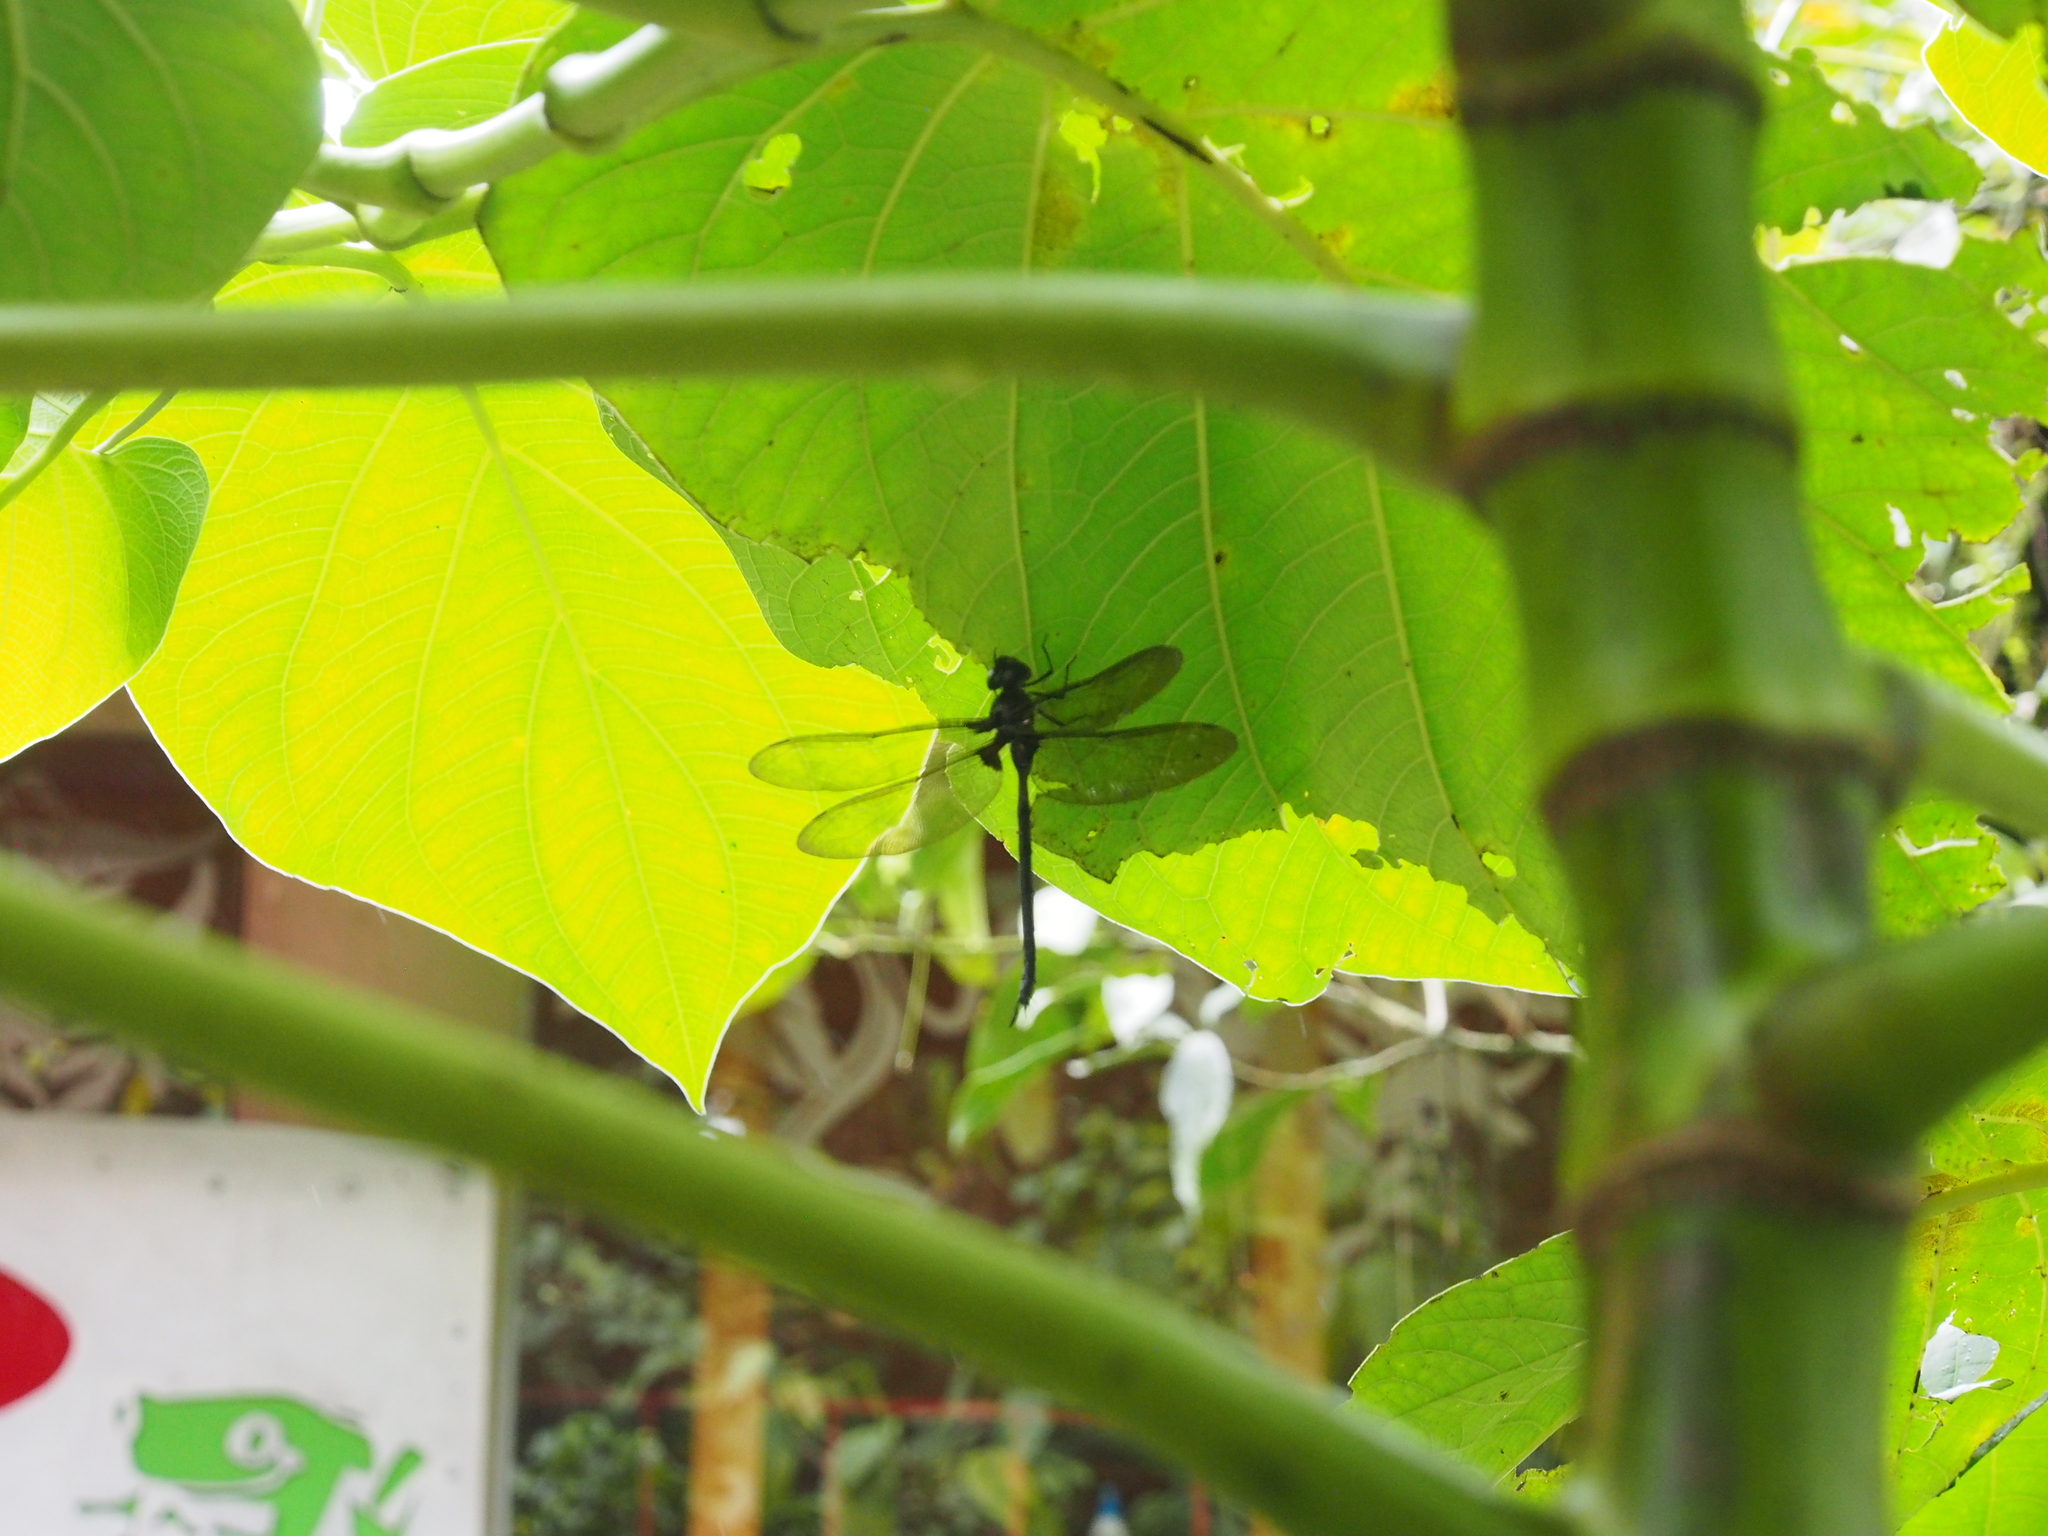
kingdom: Plantae
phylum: Tracheophyta
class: Magnoliopsida
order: Piperales
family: Piperaceae
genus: Piper
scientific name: Piper auritum
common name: Vera cruz pepper
